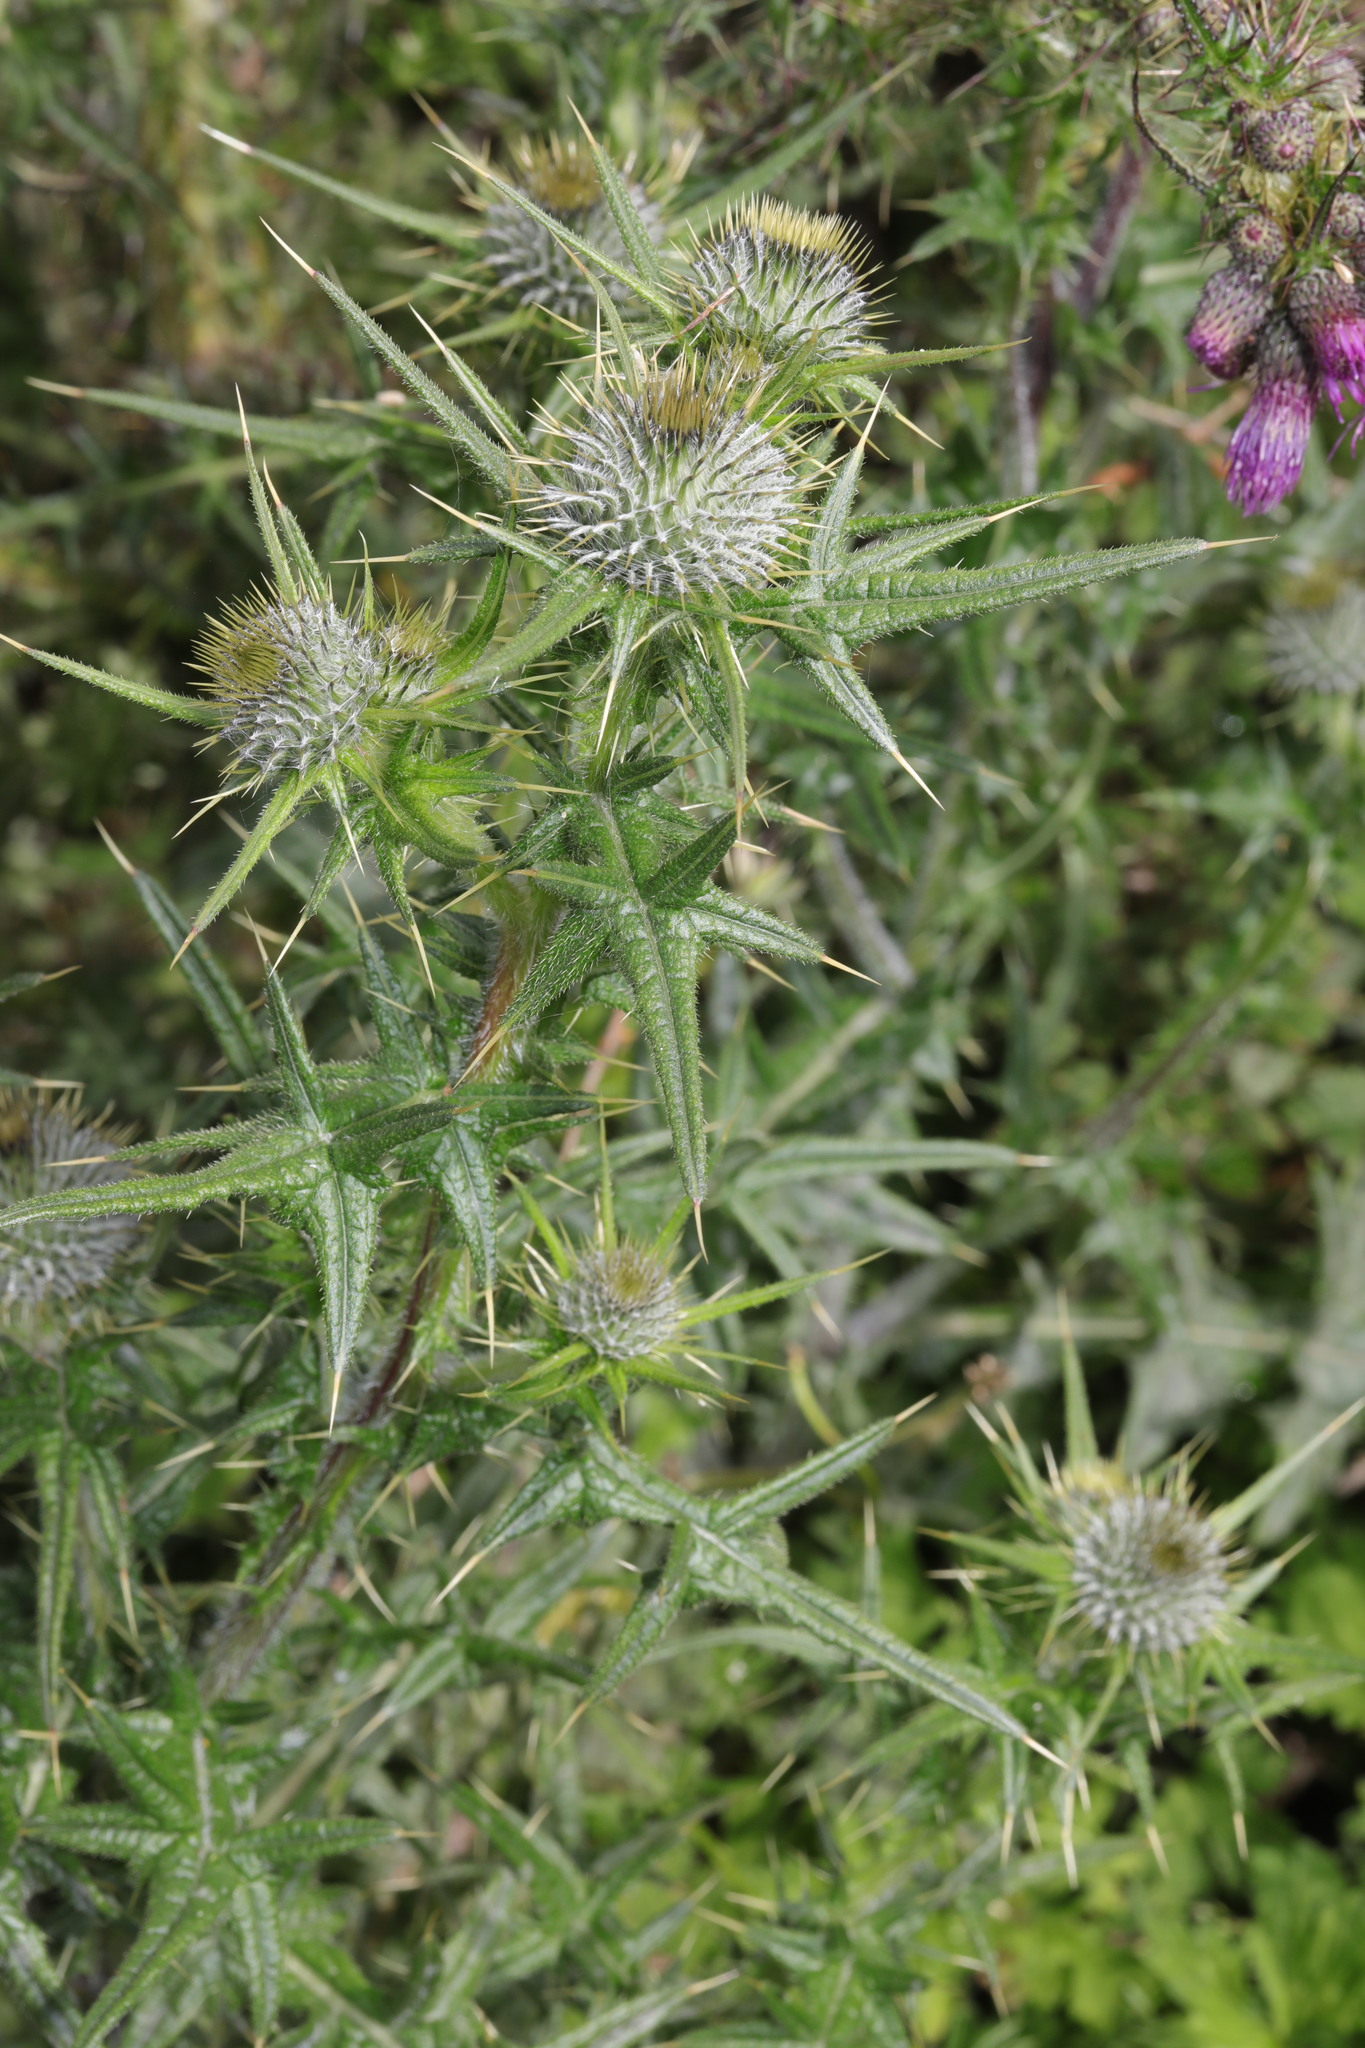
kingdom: Plantae
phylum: Tracheophyta
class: Magnoliopsida
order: Asterales
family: Asteraceae
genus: Cirsium
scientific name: Cirsium vulgare
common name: Bull thistle
